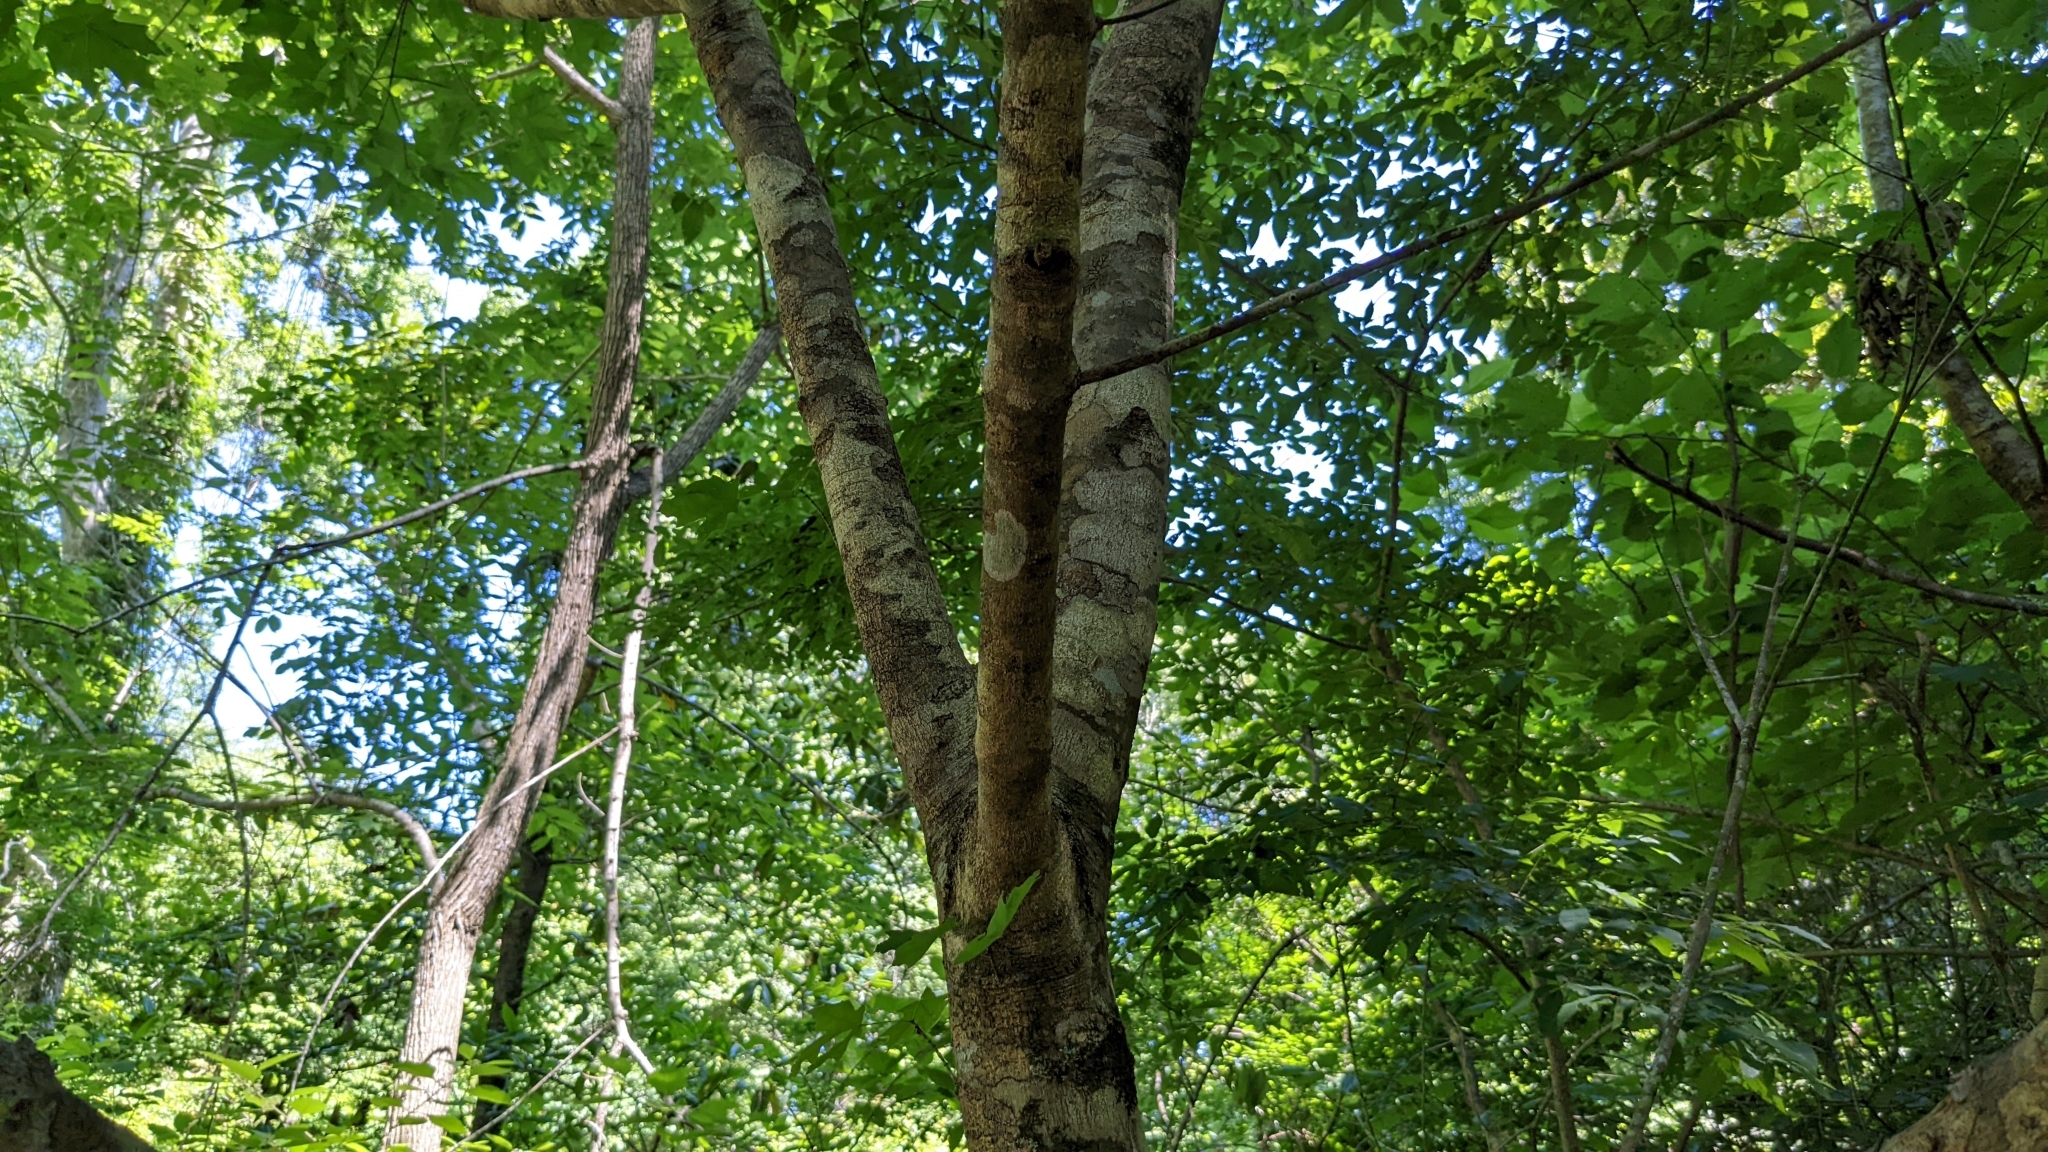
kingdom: Plantae
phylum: Tracheophyta
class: Magnoliopsida
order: Sapindales
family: Sapindaceae
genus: Acer
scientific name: Acer floridanum
